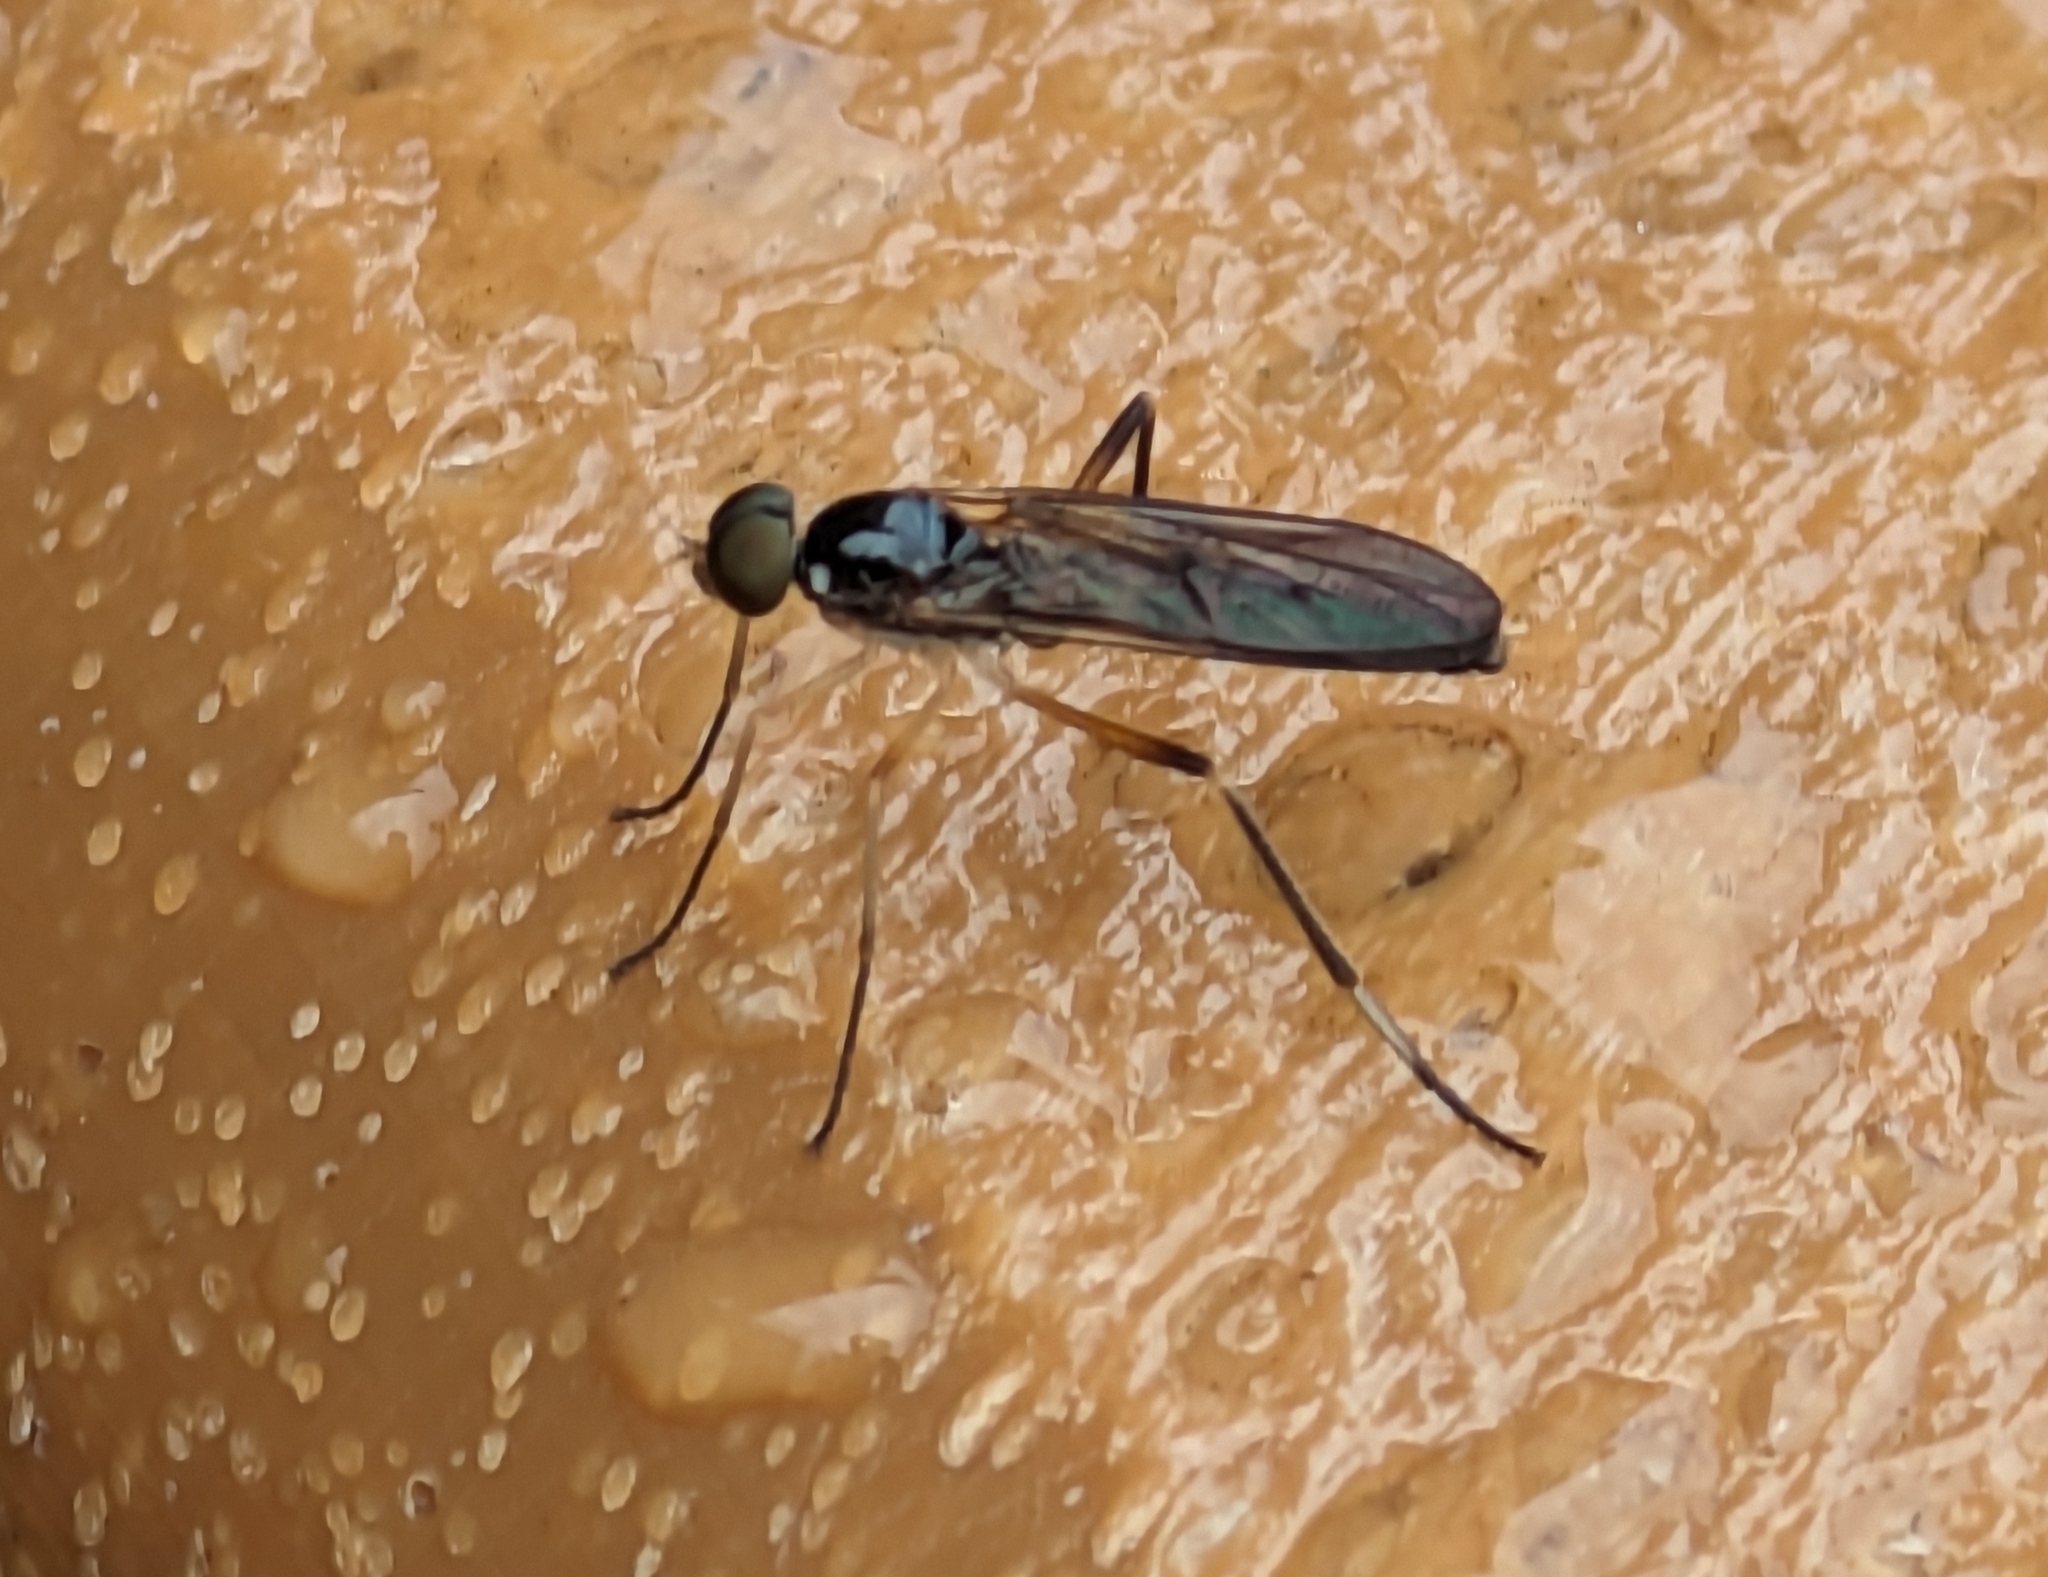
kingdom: Animalia
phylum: Arthropoda
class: Insecta
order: Diptera
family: Xylophagidae
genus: Dialysis
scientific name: Dialysis elongata
